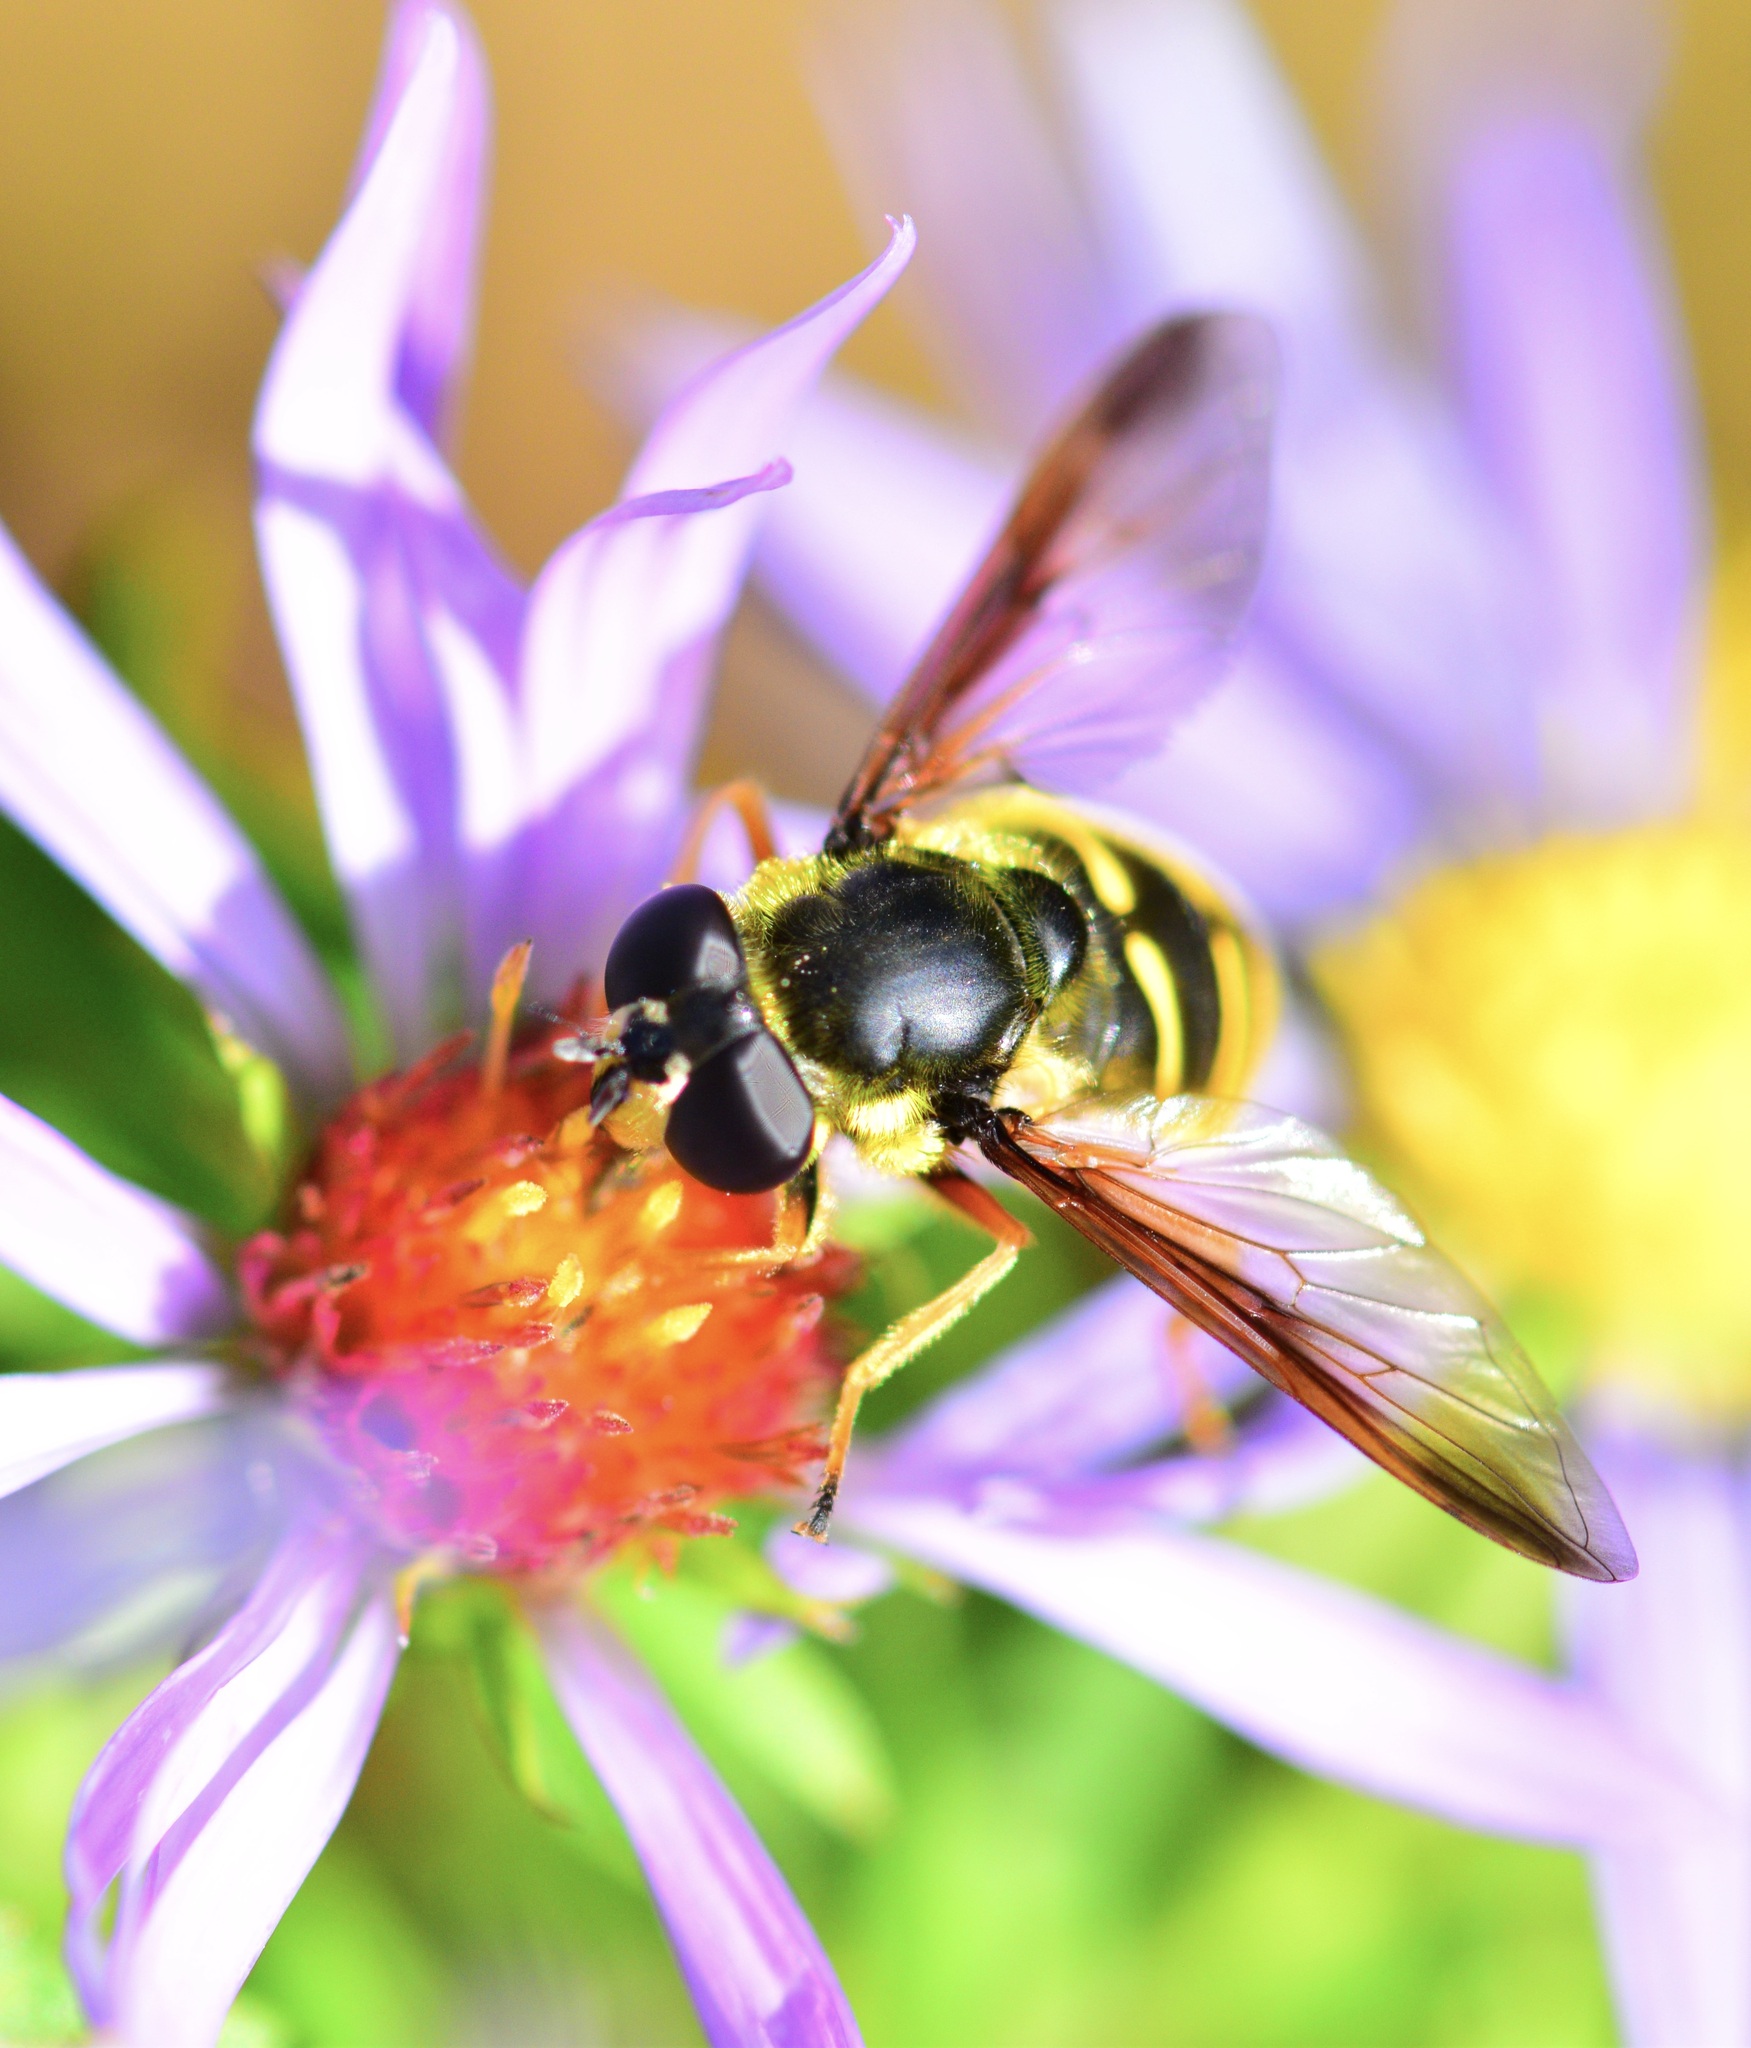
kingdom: Animalia
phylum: Arthropoda
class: Insecta
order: Diptera
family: Syrphidae
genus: Sericomyia
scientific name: Sericomyia chrysotoxoides
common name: Oblique-banded pond fly
